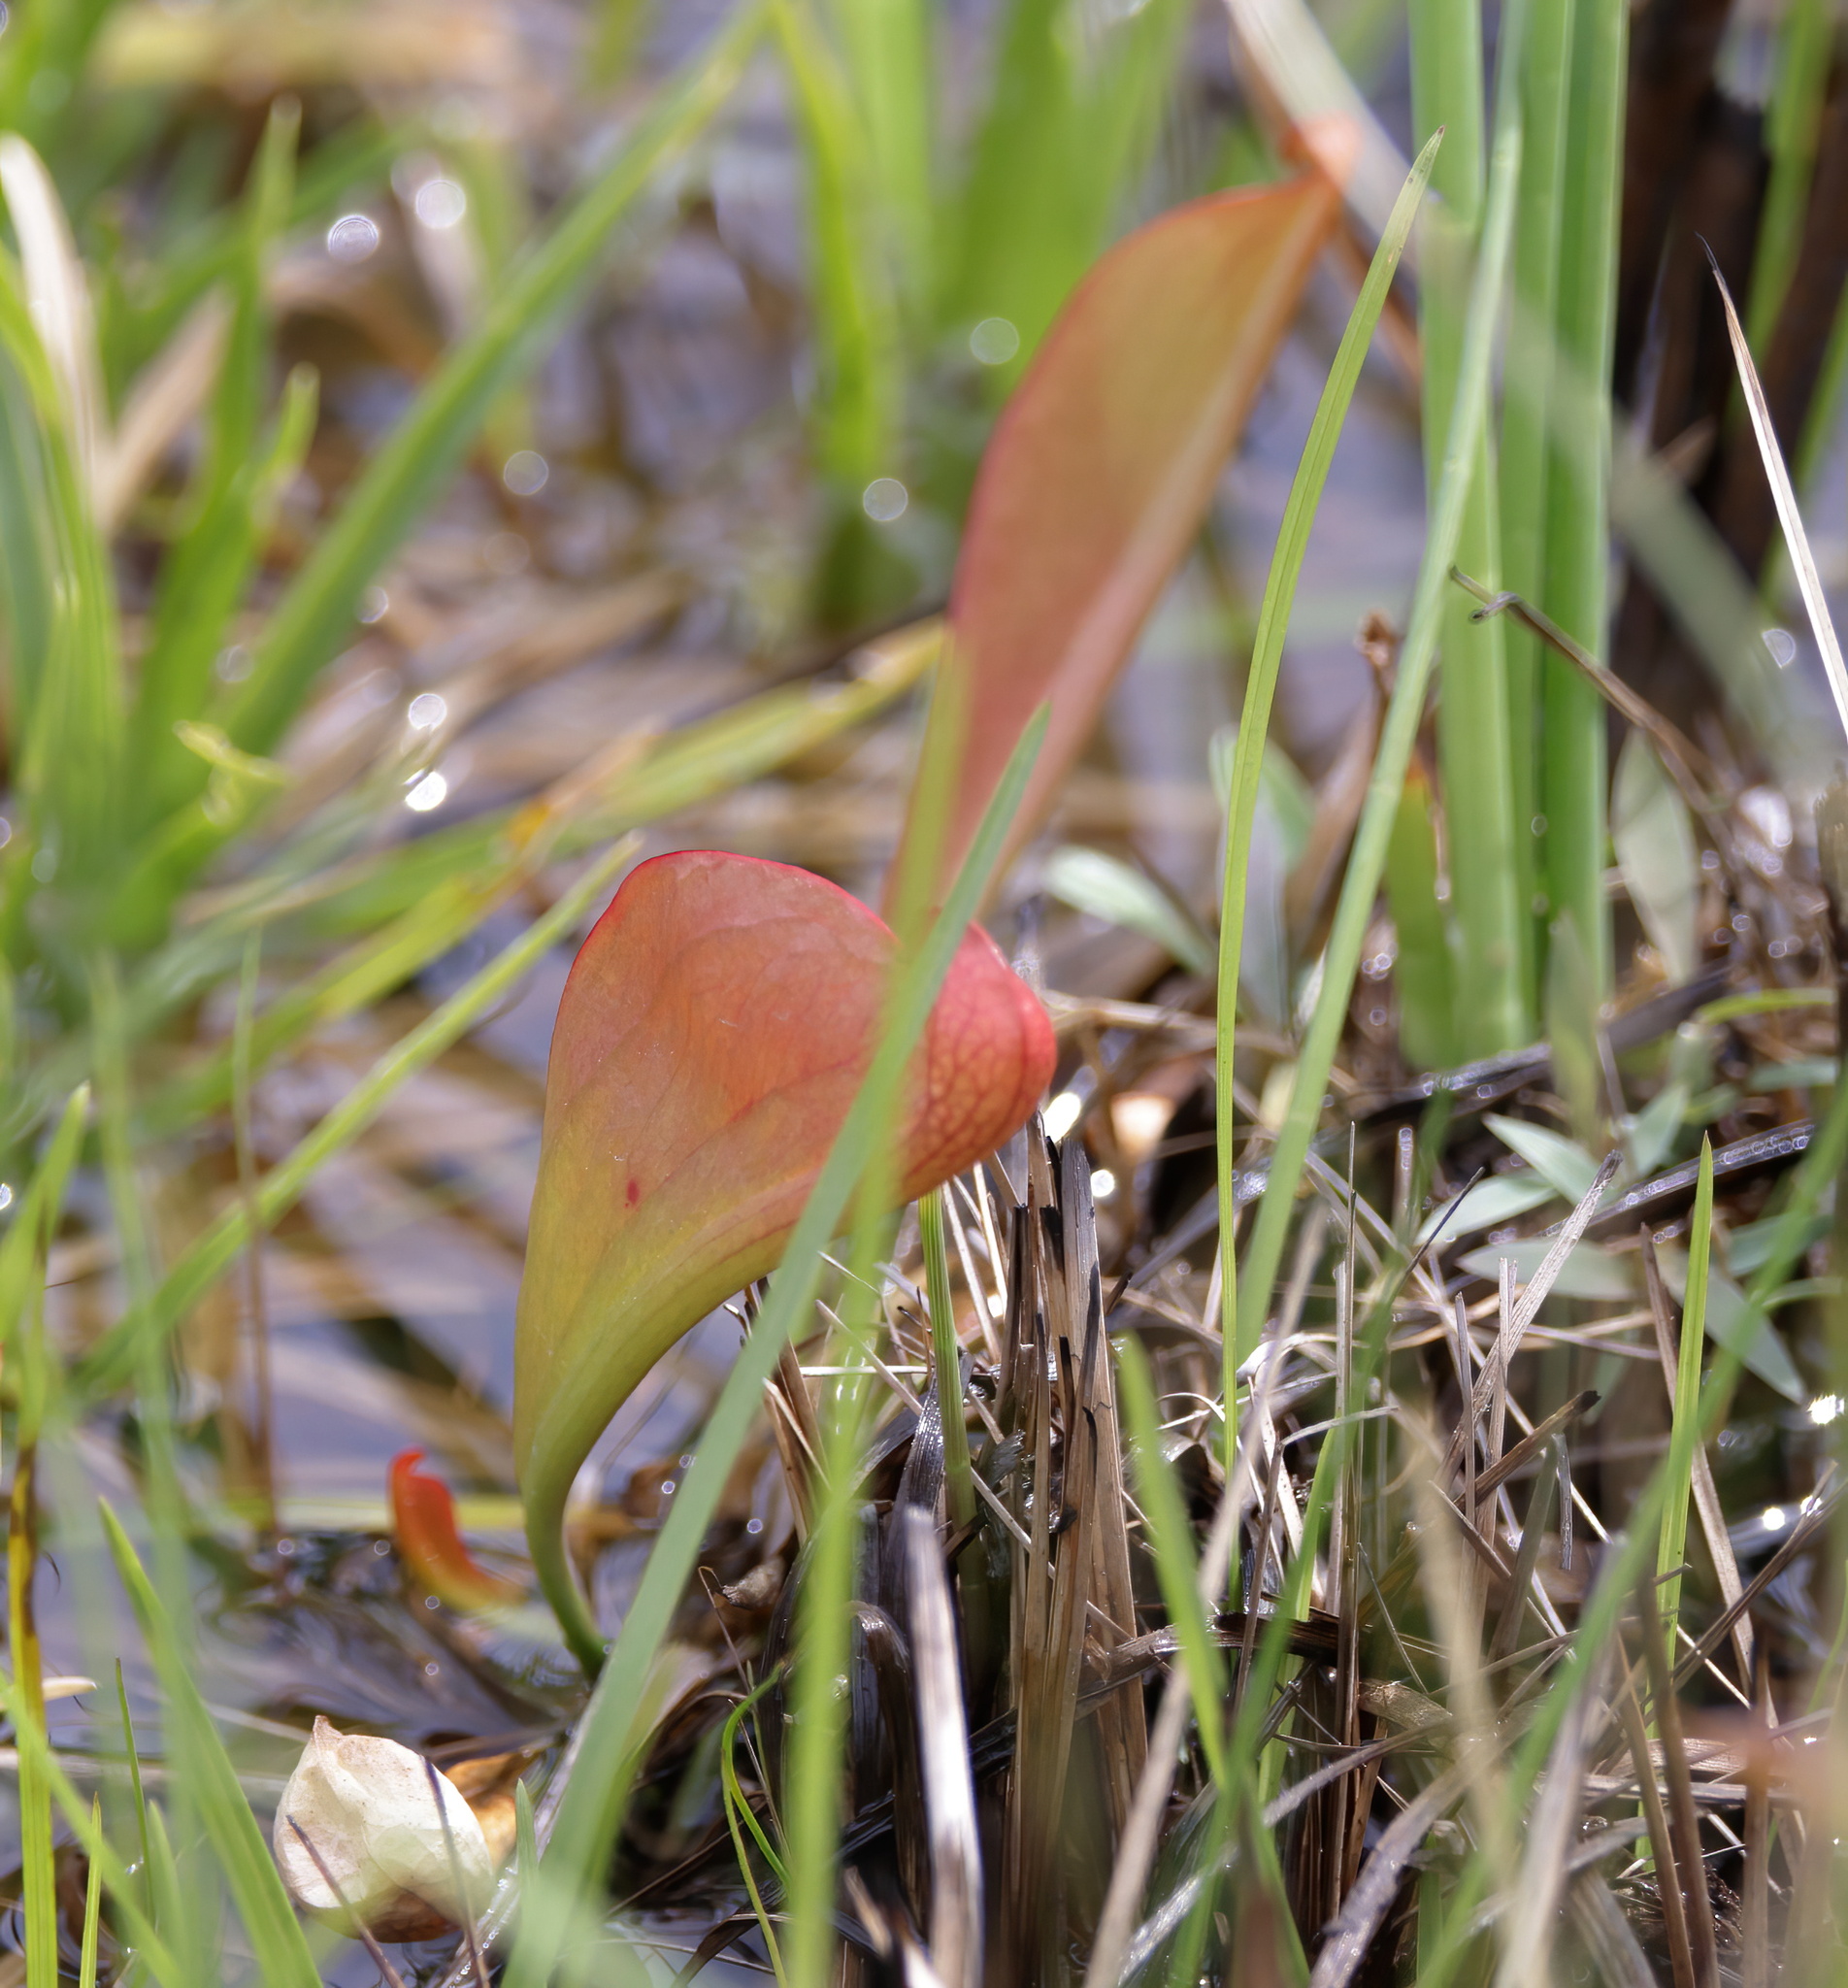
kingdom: Plantae
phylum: Tracheophyta
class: Magnoliopsida
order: Ericales
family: Sarraceniaceae
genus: Sarracenia
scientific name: Sarracenia psittacina
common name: Parrot pitcherplant
